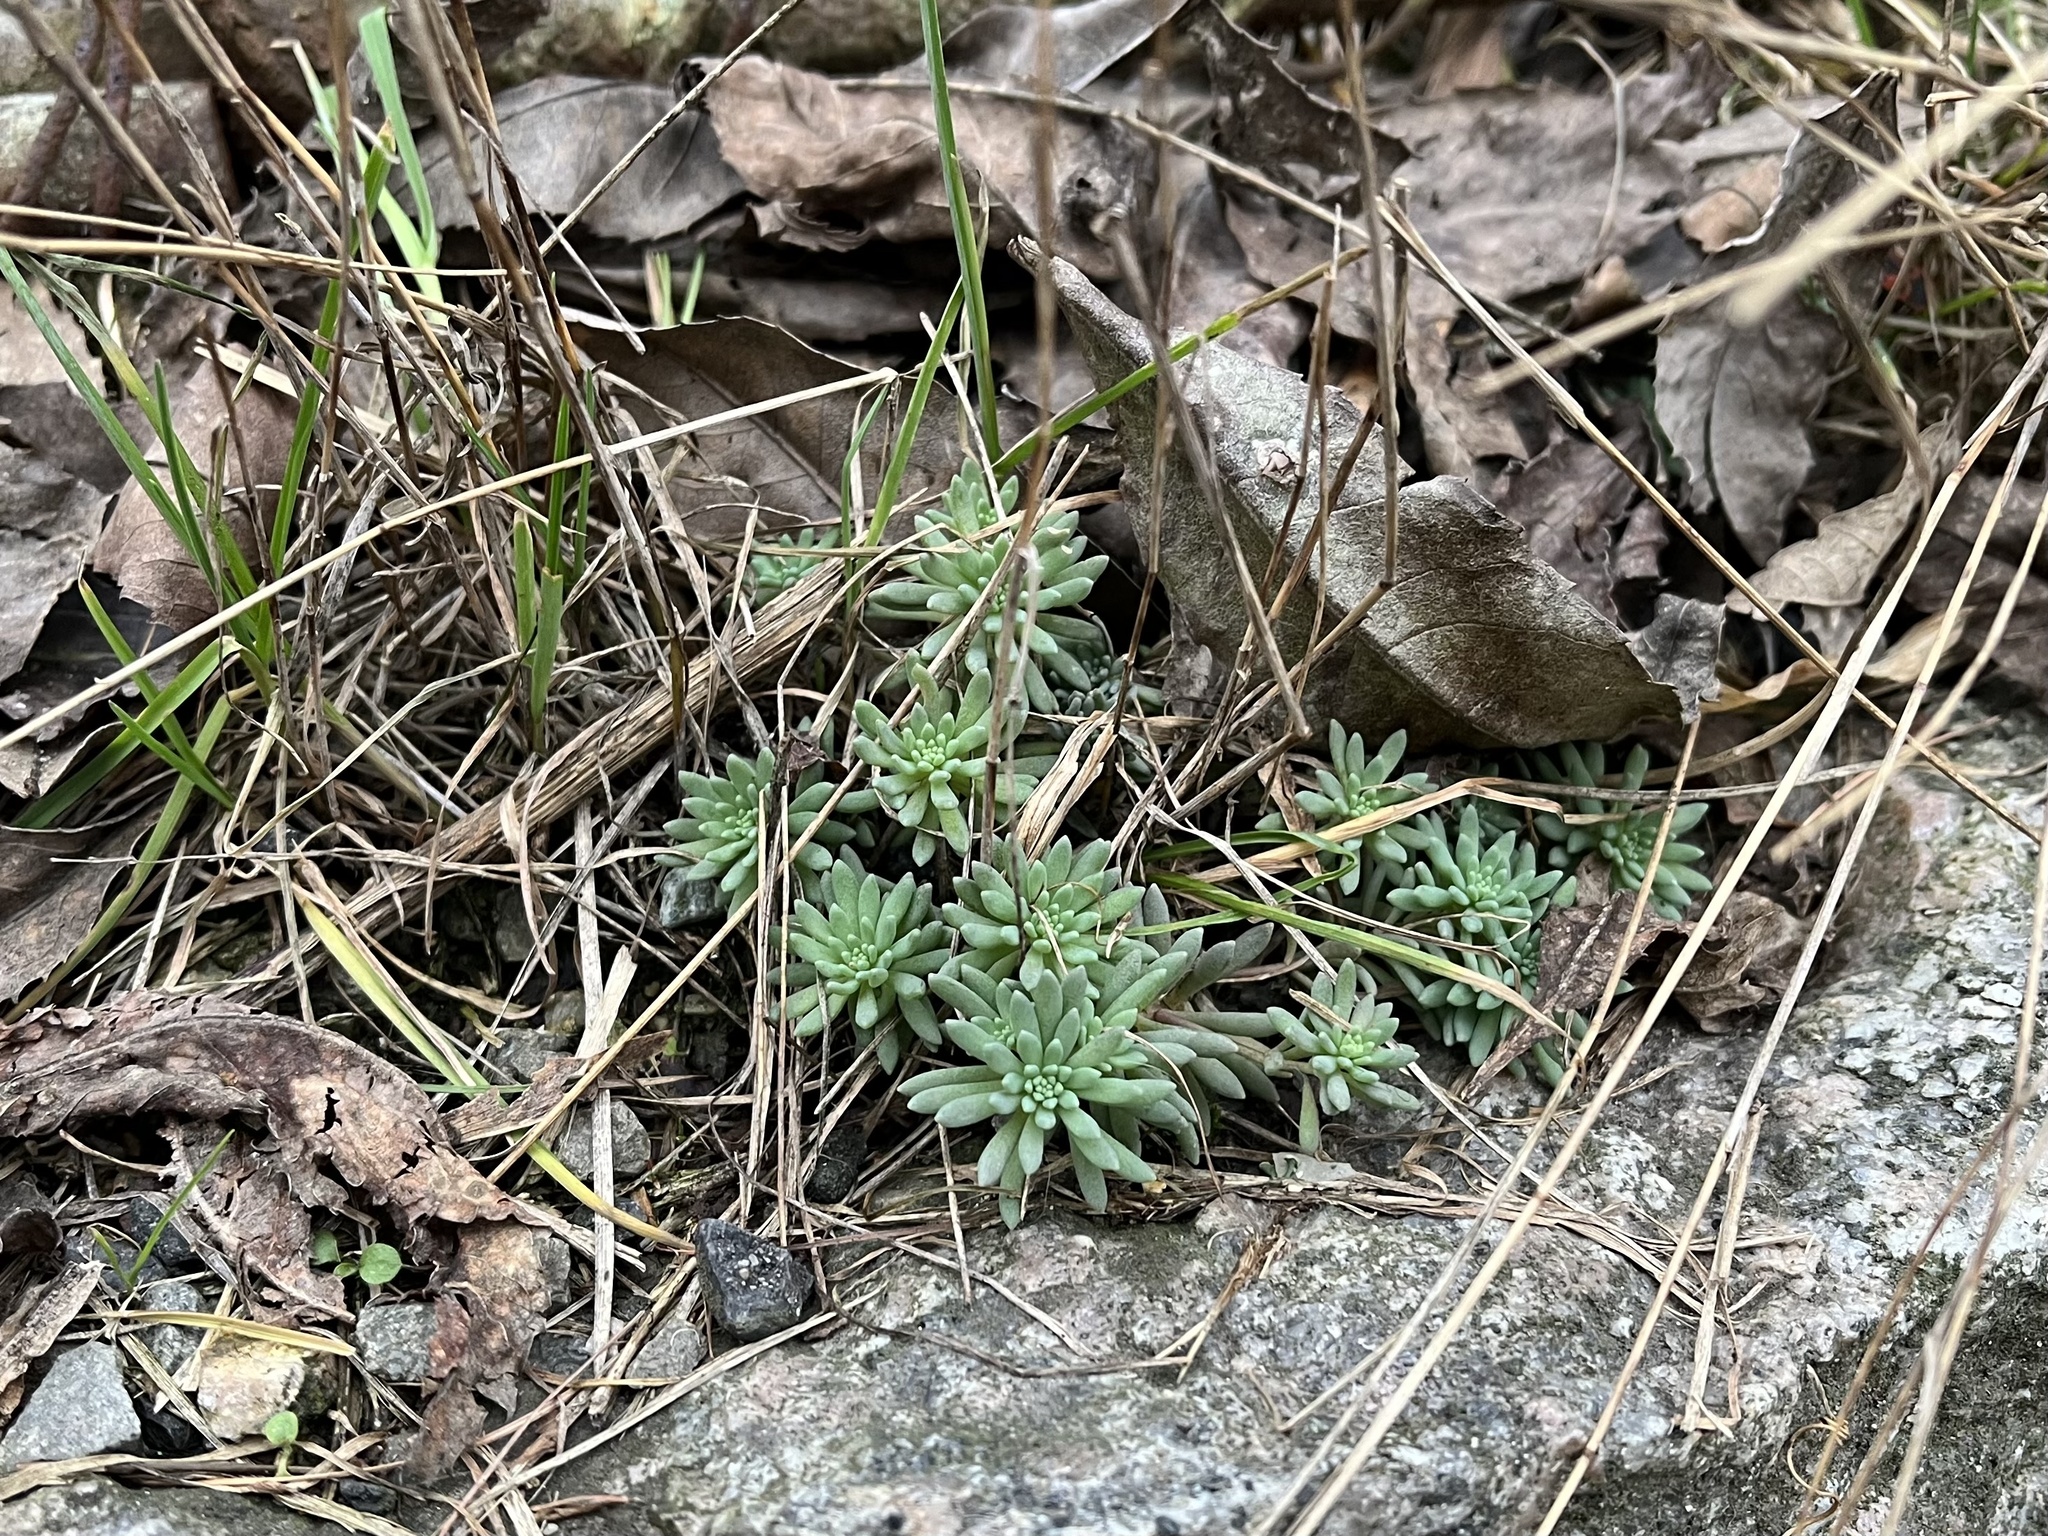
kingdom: Plantae
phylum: Tracheophyta
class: Magnoliopsida
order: Saxifragales
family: Crassulaceae
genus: Sedum
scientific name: Sedum hispanicum
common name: Spanish stonecrop
